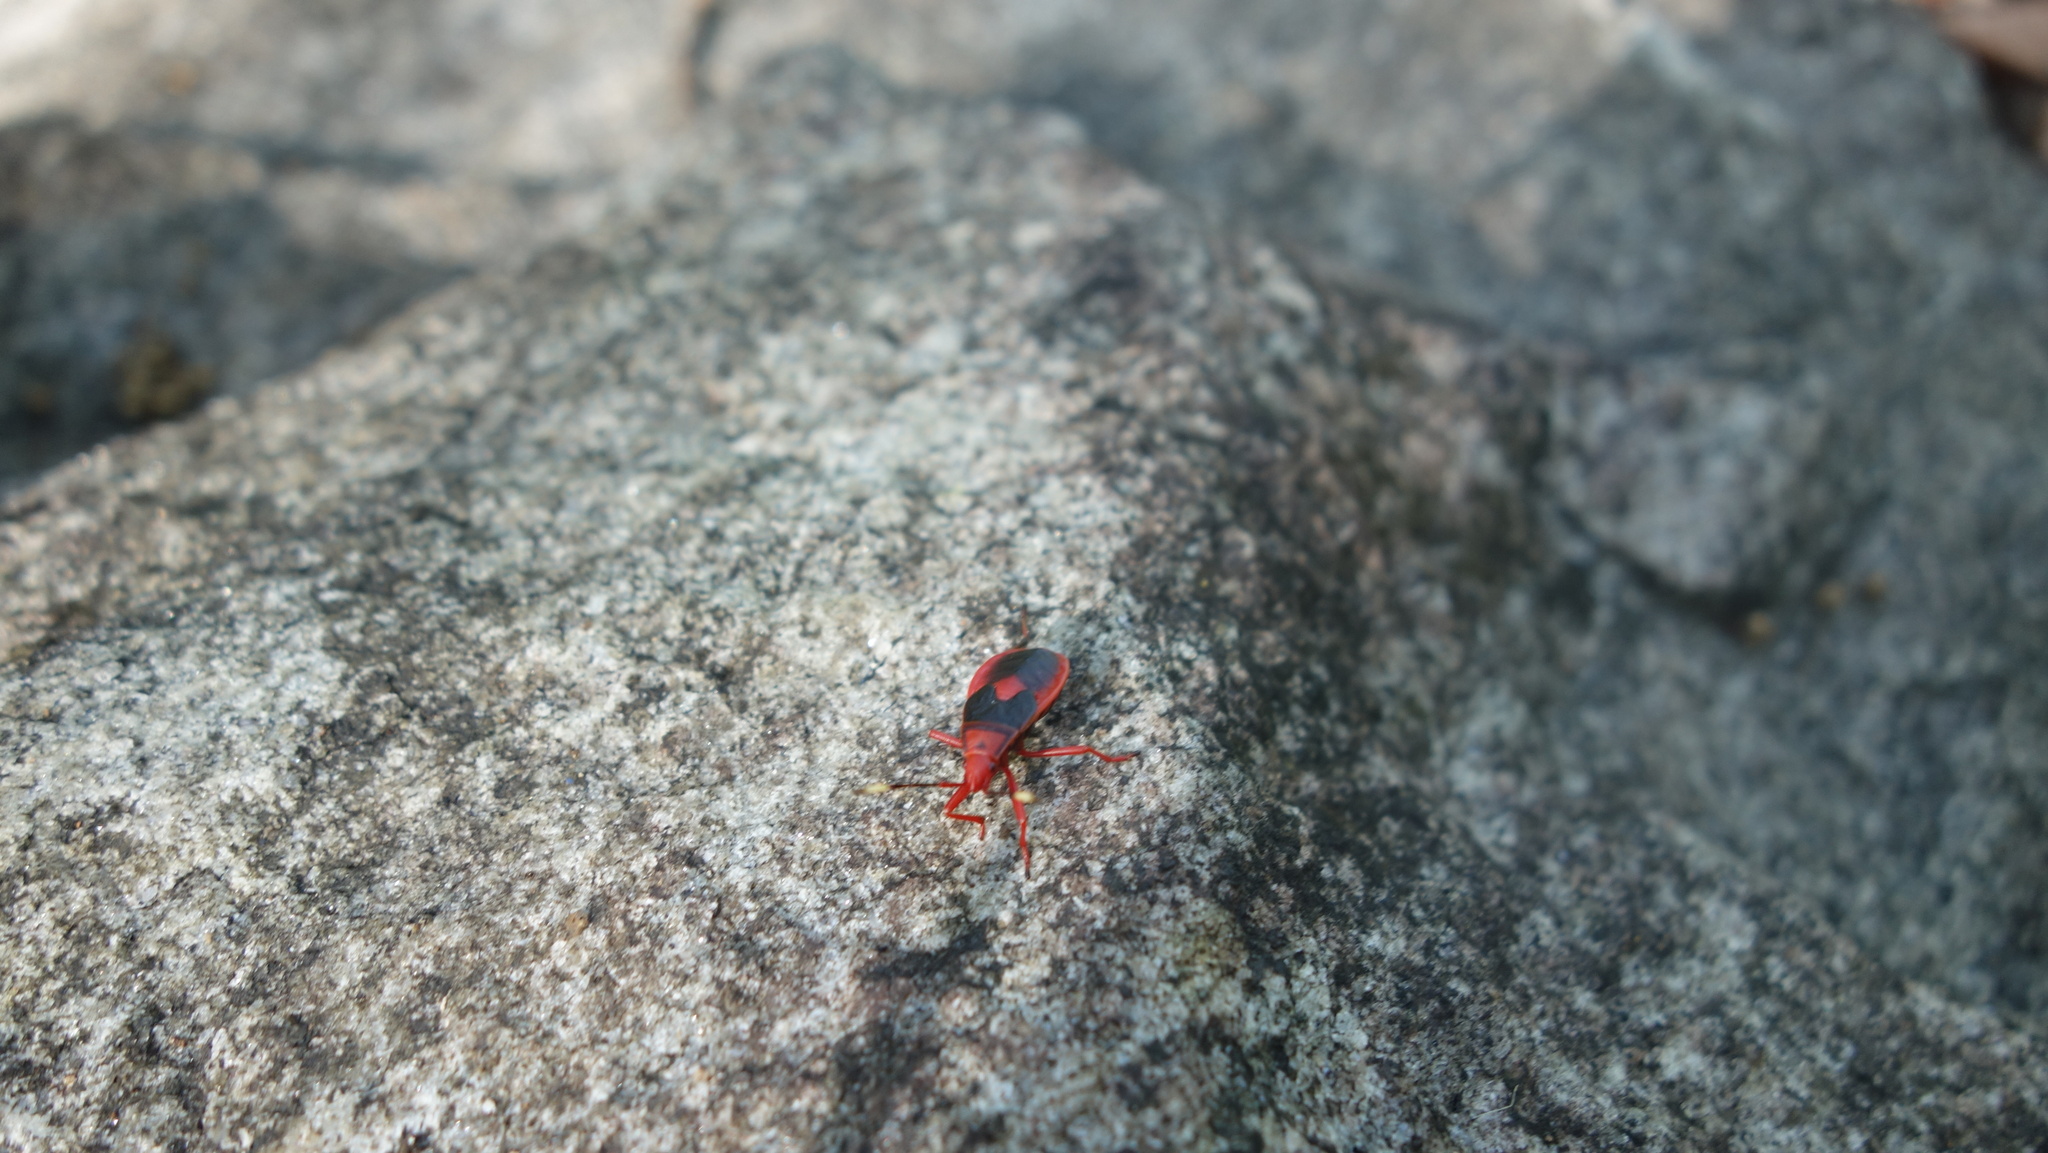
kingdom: Animalia
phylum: Arthropoda
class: Insecta
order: Hemiptera
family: Pyrrhocoridae
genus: Probergrothius
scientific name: Probergrothius
